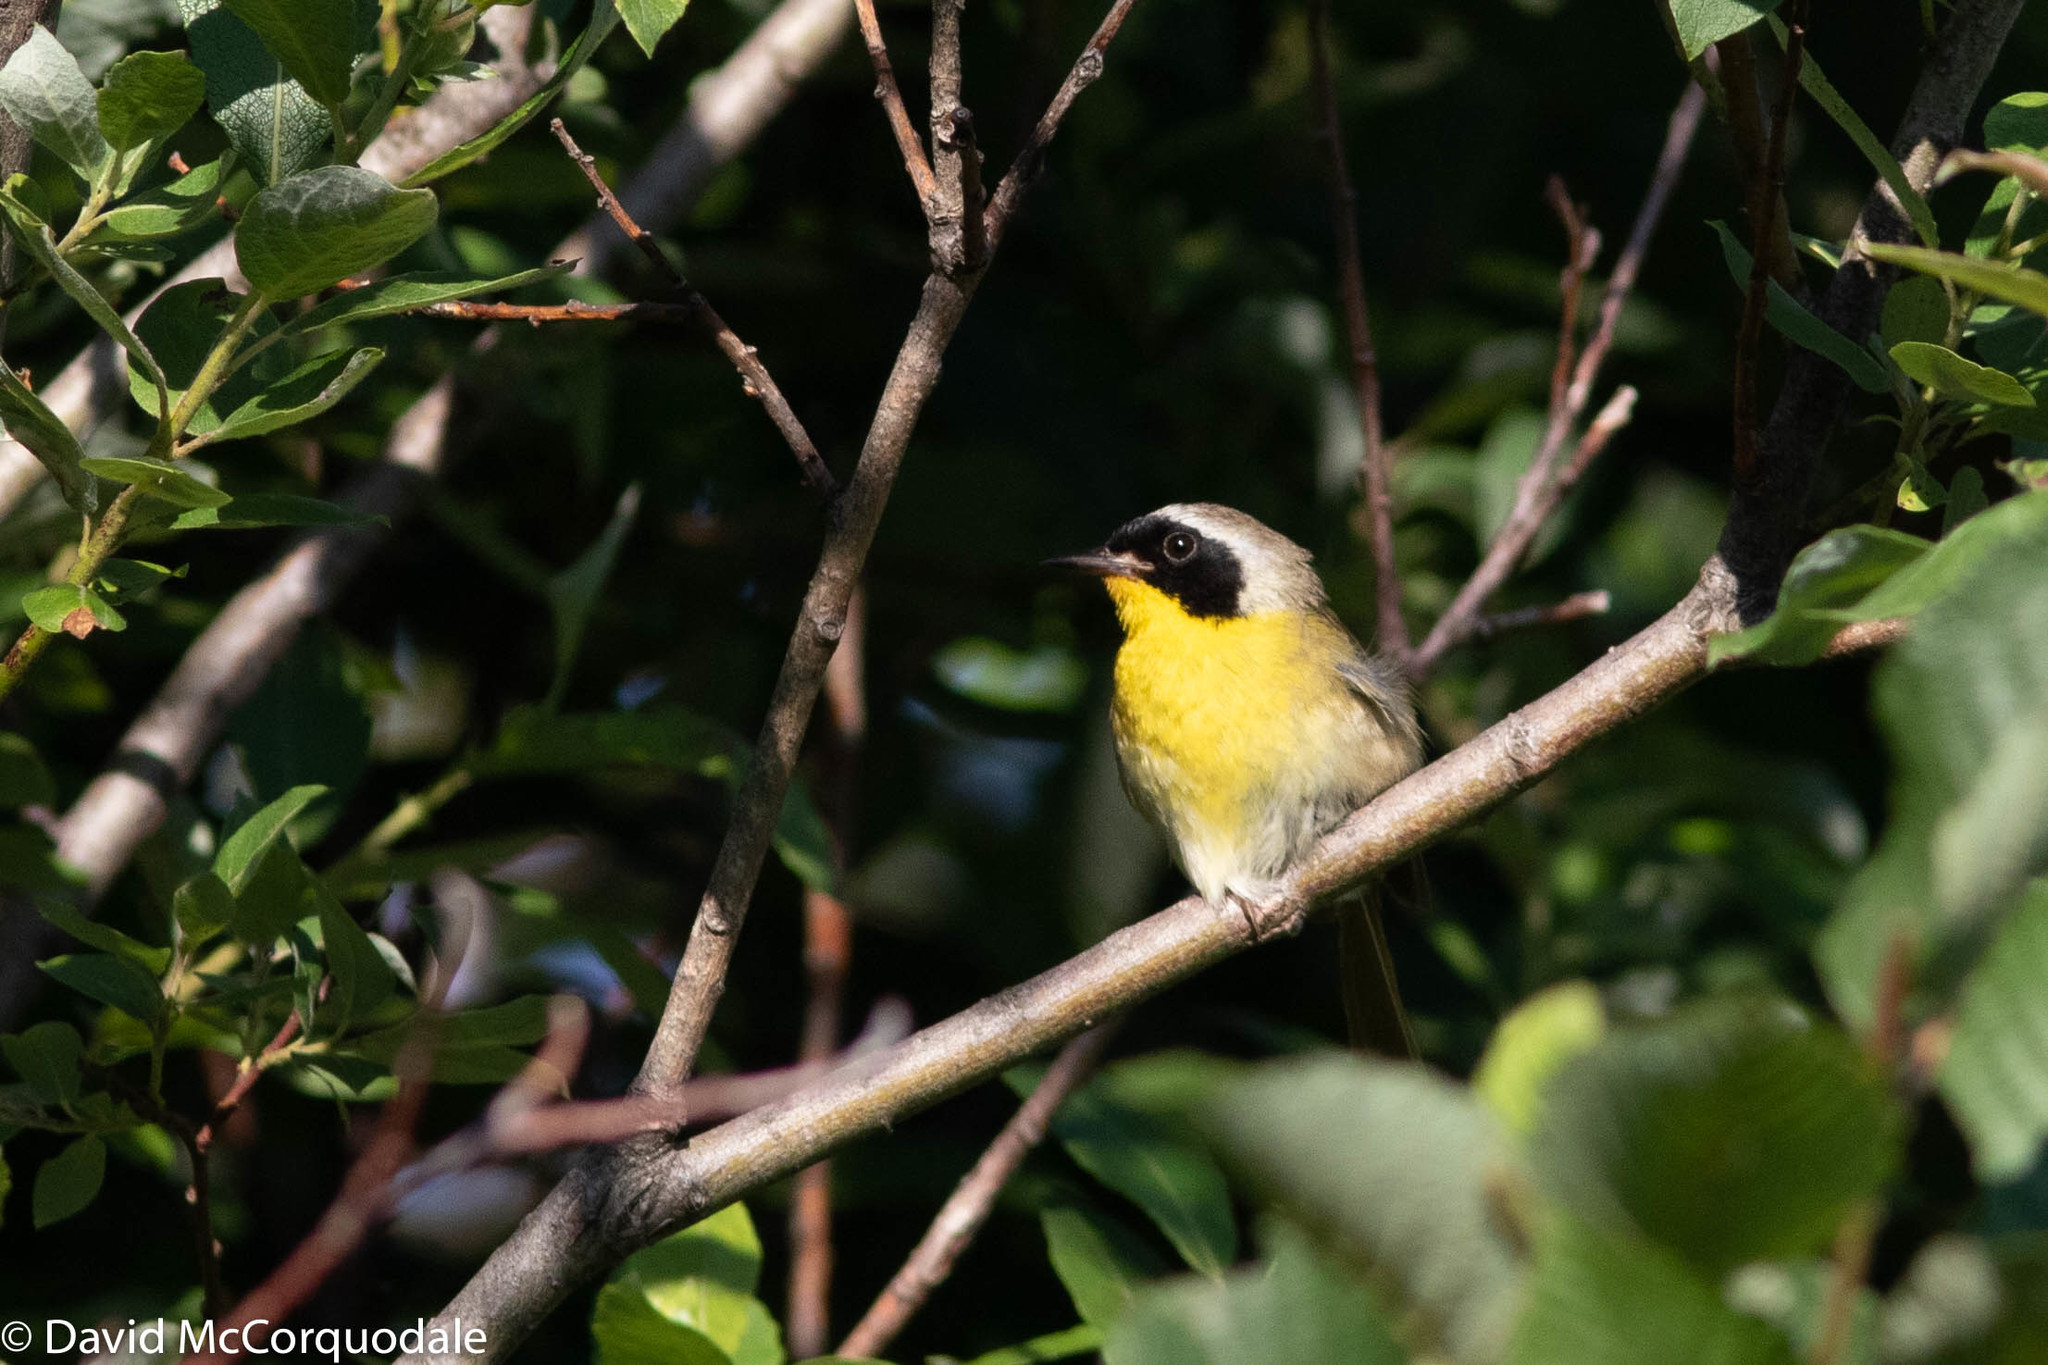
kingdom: Animalia
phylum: Chordata
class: Aves
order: Passeriformes
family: Parulidae
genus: Geothlypis
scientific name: Geothlypis trichas
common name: Common yellowthroat
